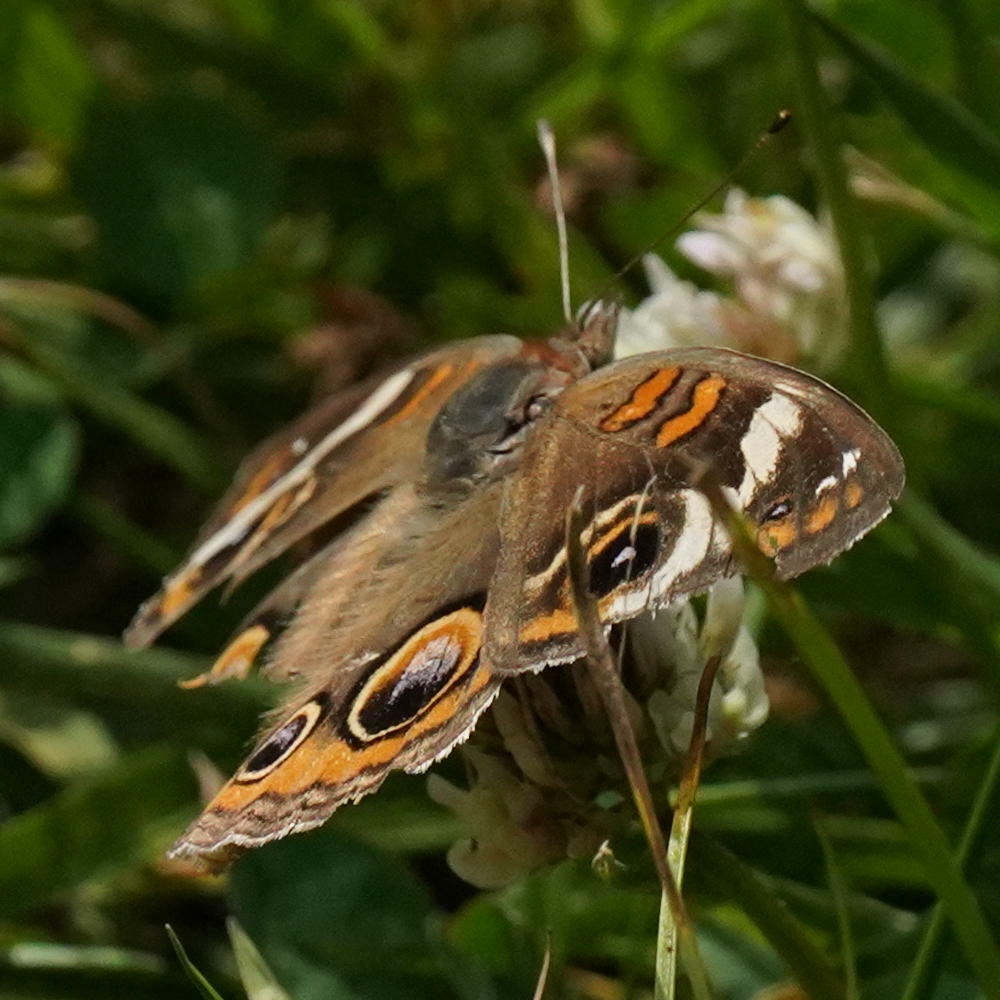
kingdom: Animalia
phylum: Arthropoda
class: Insecta
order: Lepidoptera
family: Nymphalidae
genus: Junonia
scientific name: Junonia coenia
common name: Common buckeye
